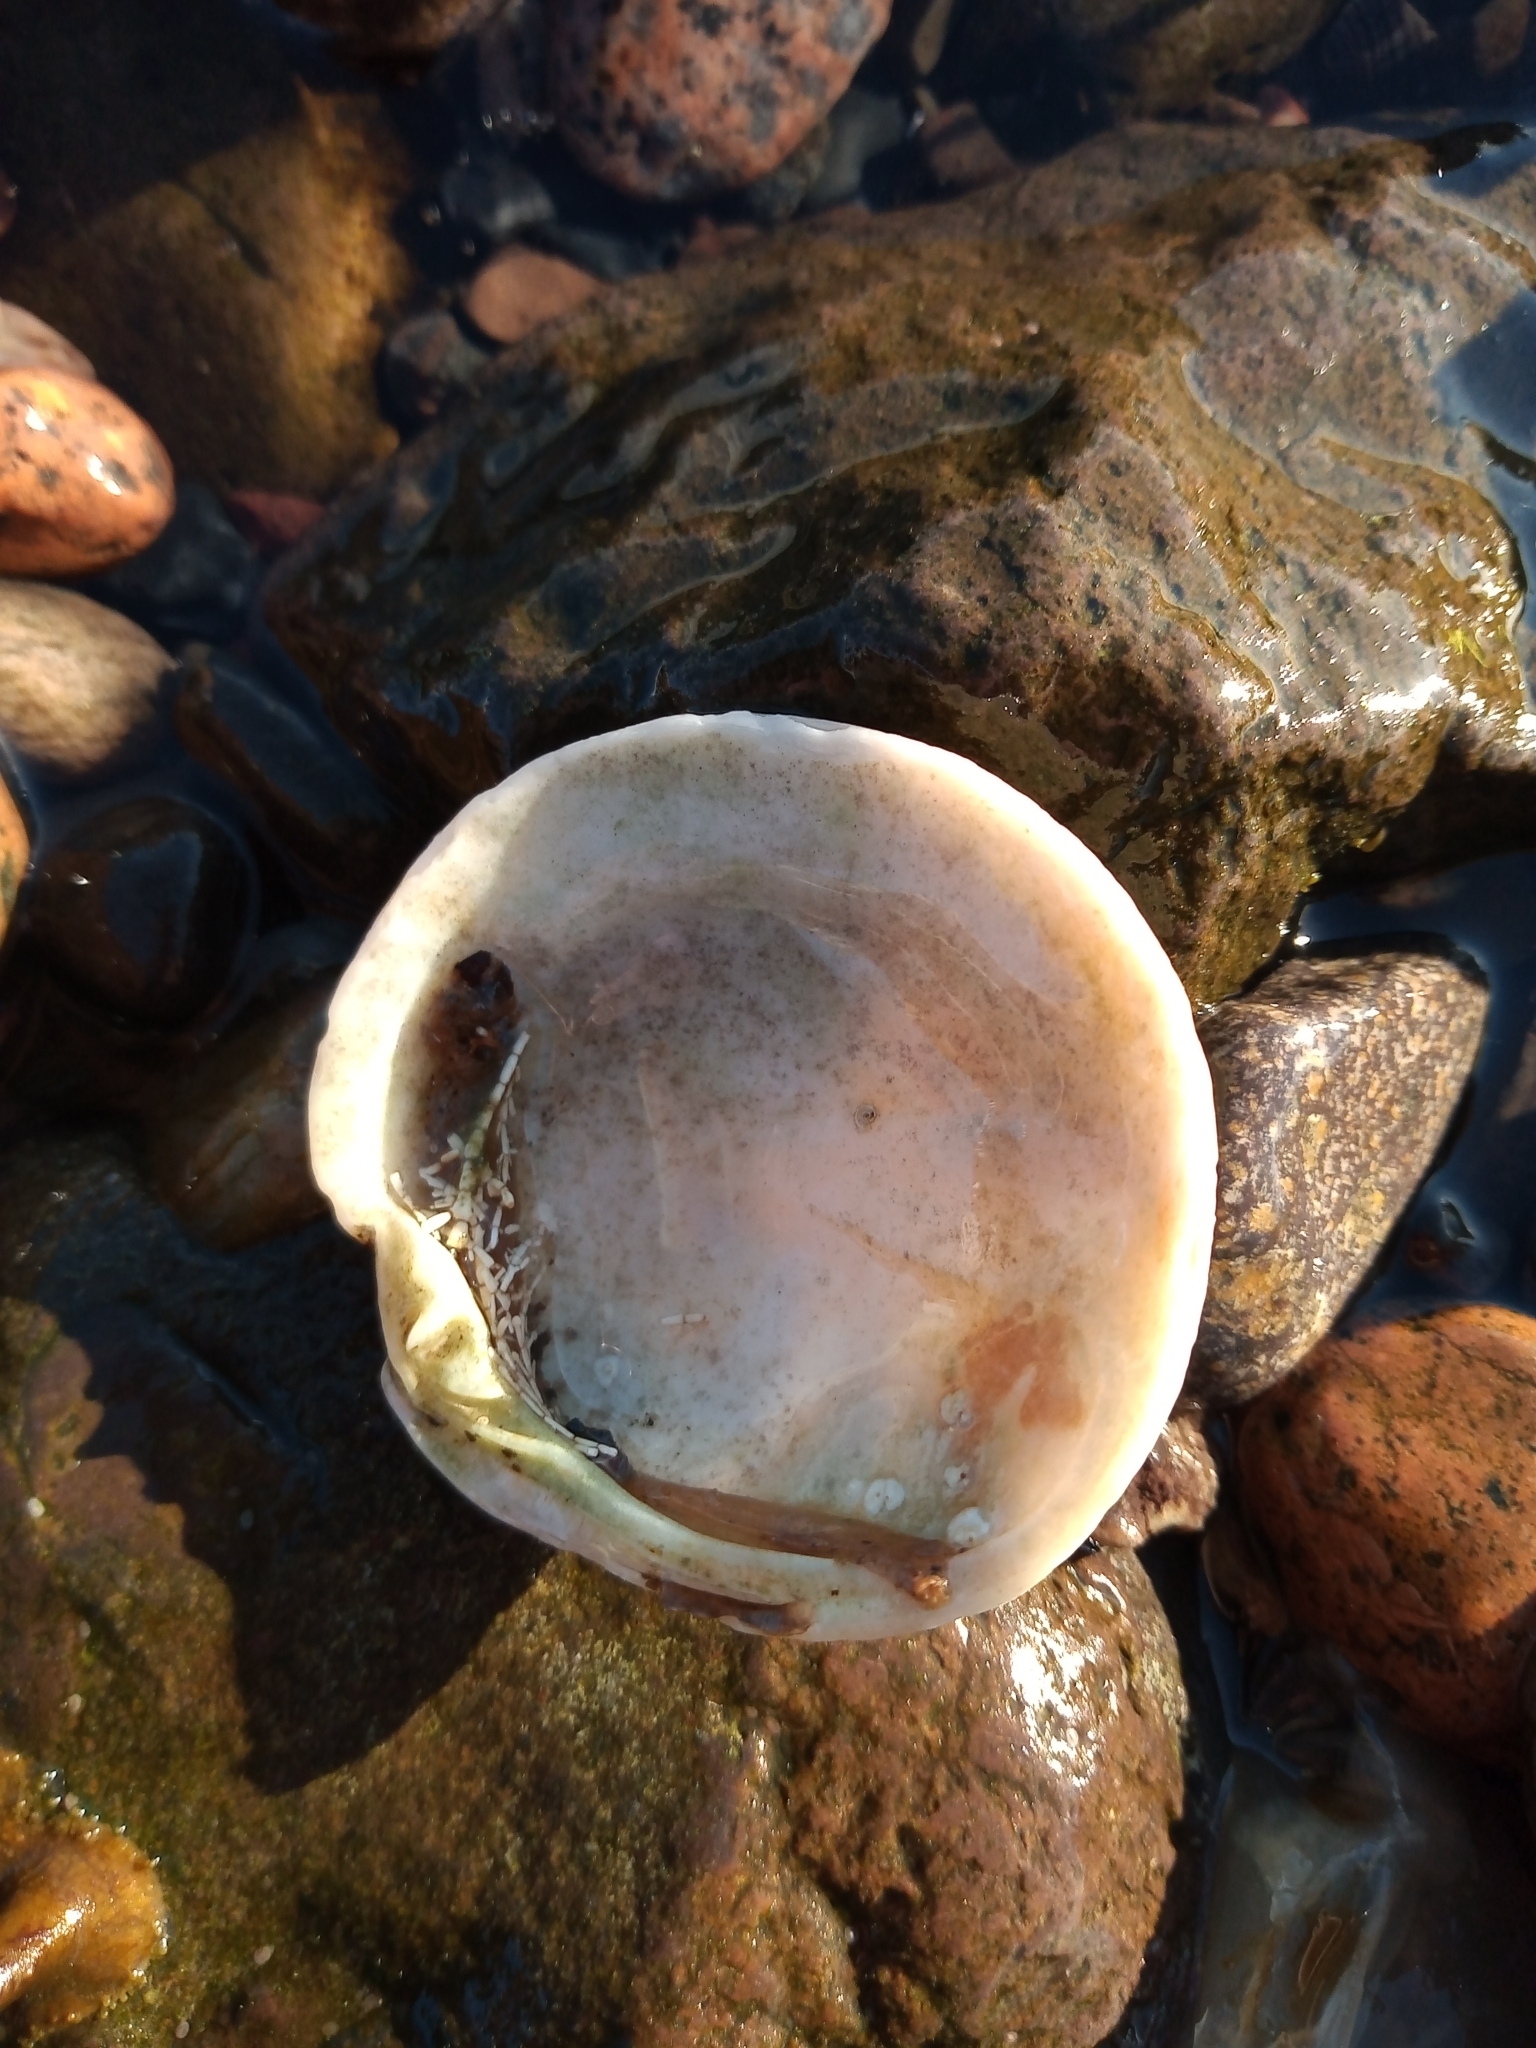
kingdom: Animalia
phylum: Mollusca
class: Bivalvia
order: Venerida
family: Veneridae
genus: Dosinia
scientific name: Dosinia exoleta
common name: Rayed artemis
